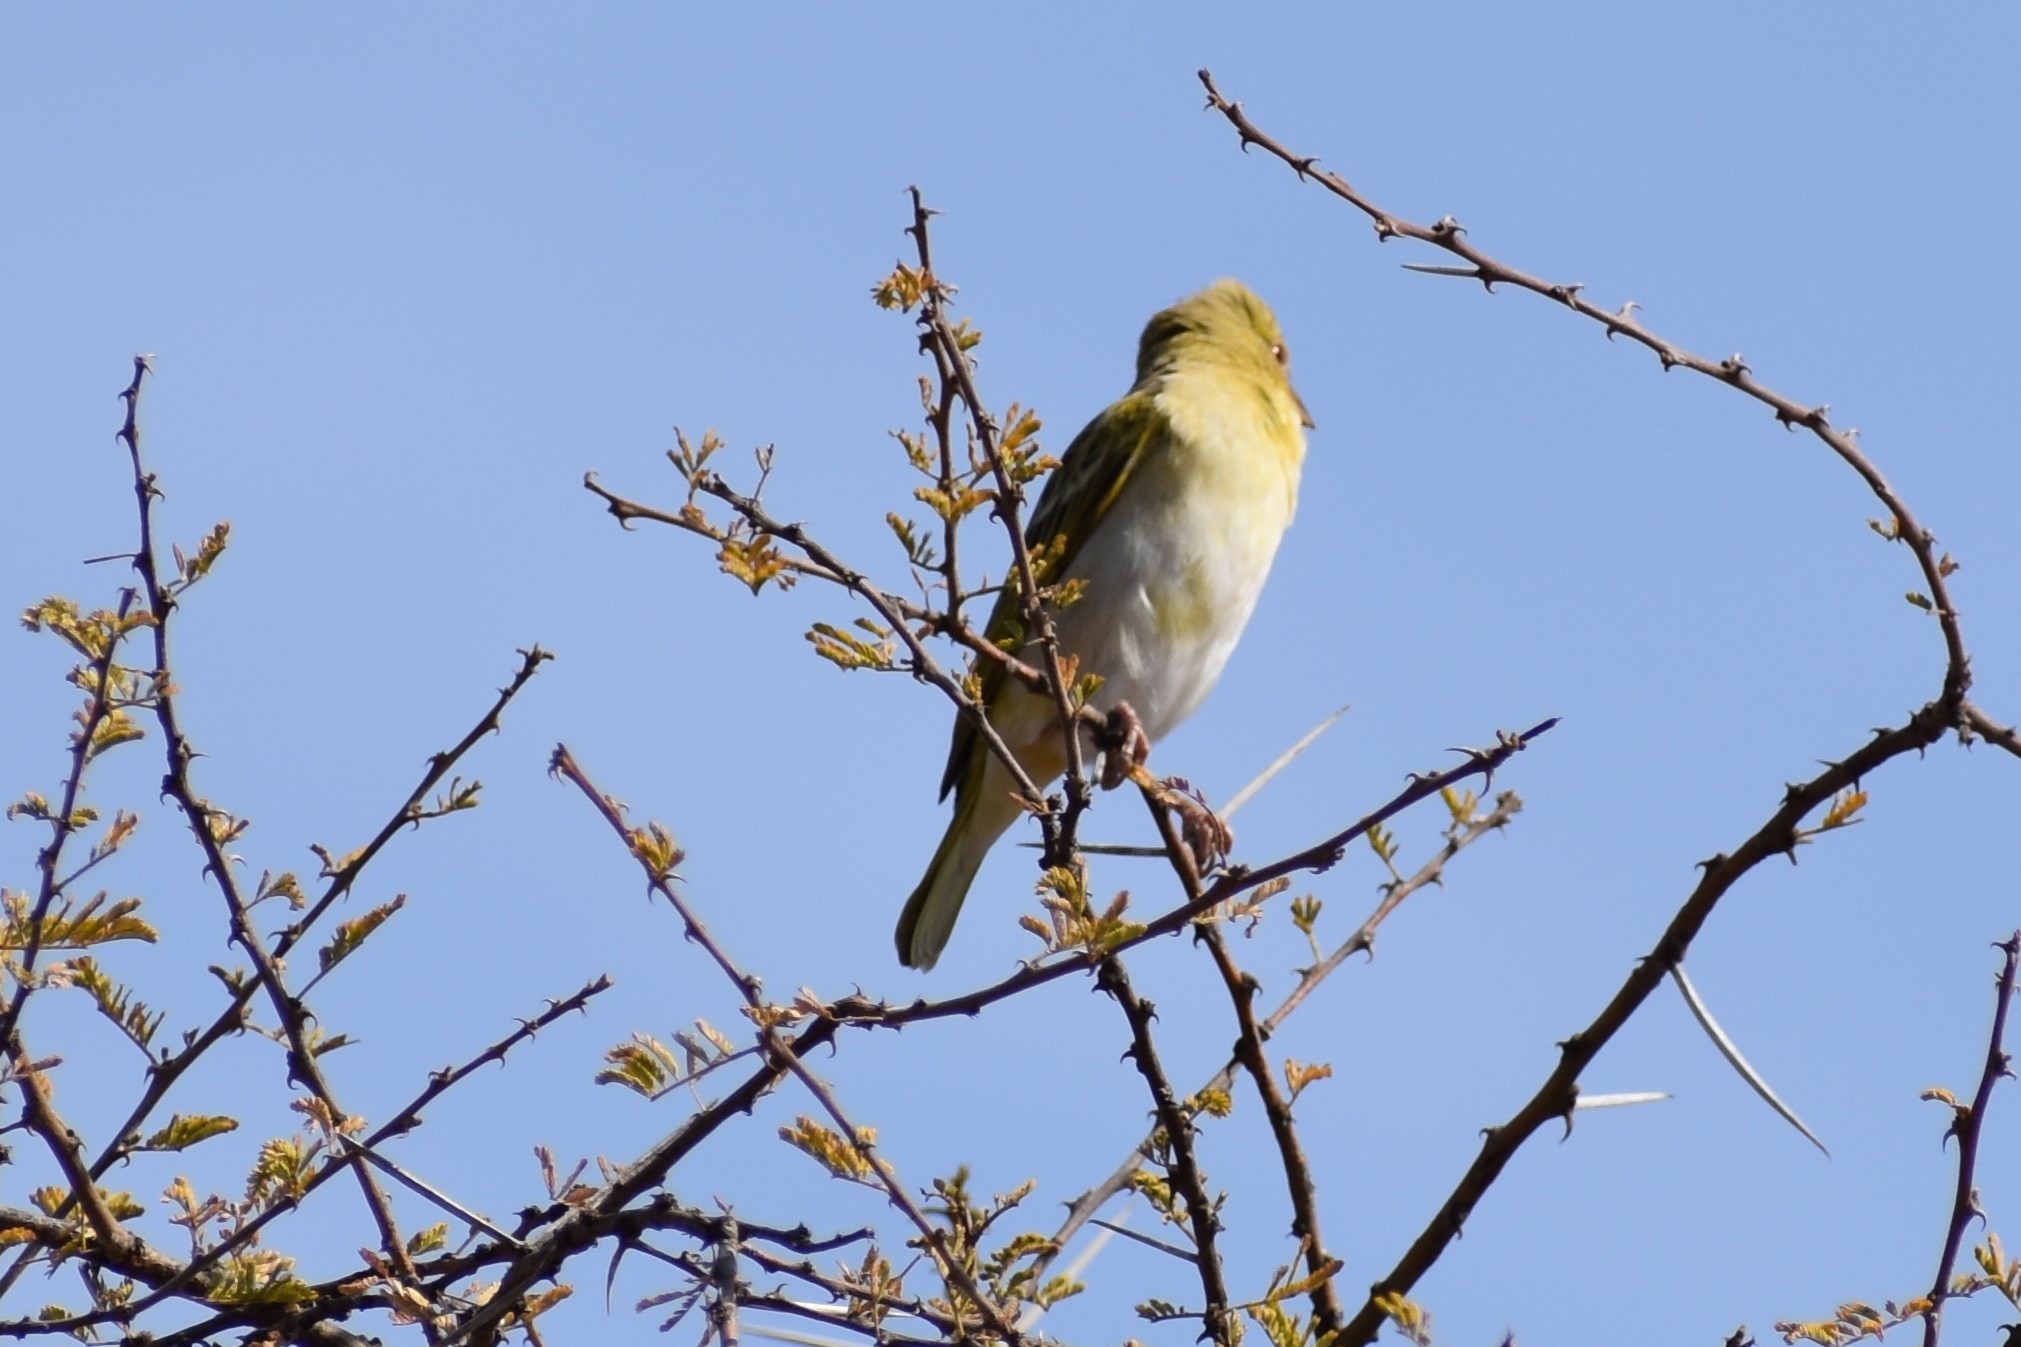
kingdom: Animalia
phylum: Chordata
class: Aves
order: Passeriformes
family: Ploceidae
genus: Ploceus
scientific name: Ploceus velatus
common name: Southern masked weaver
